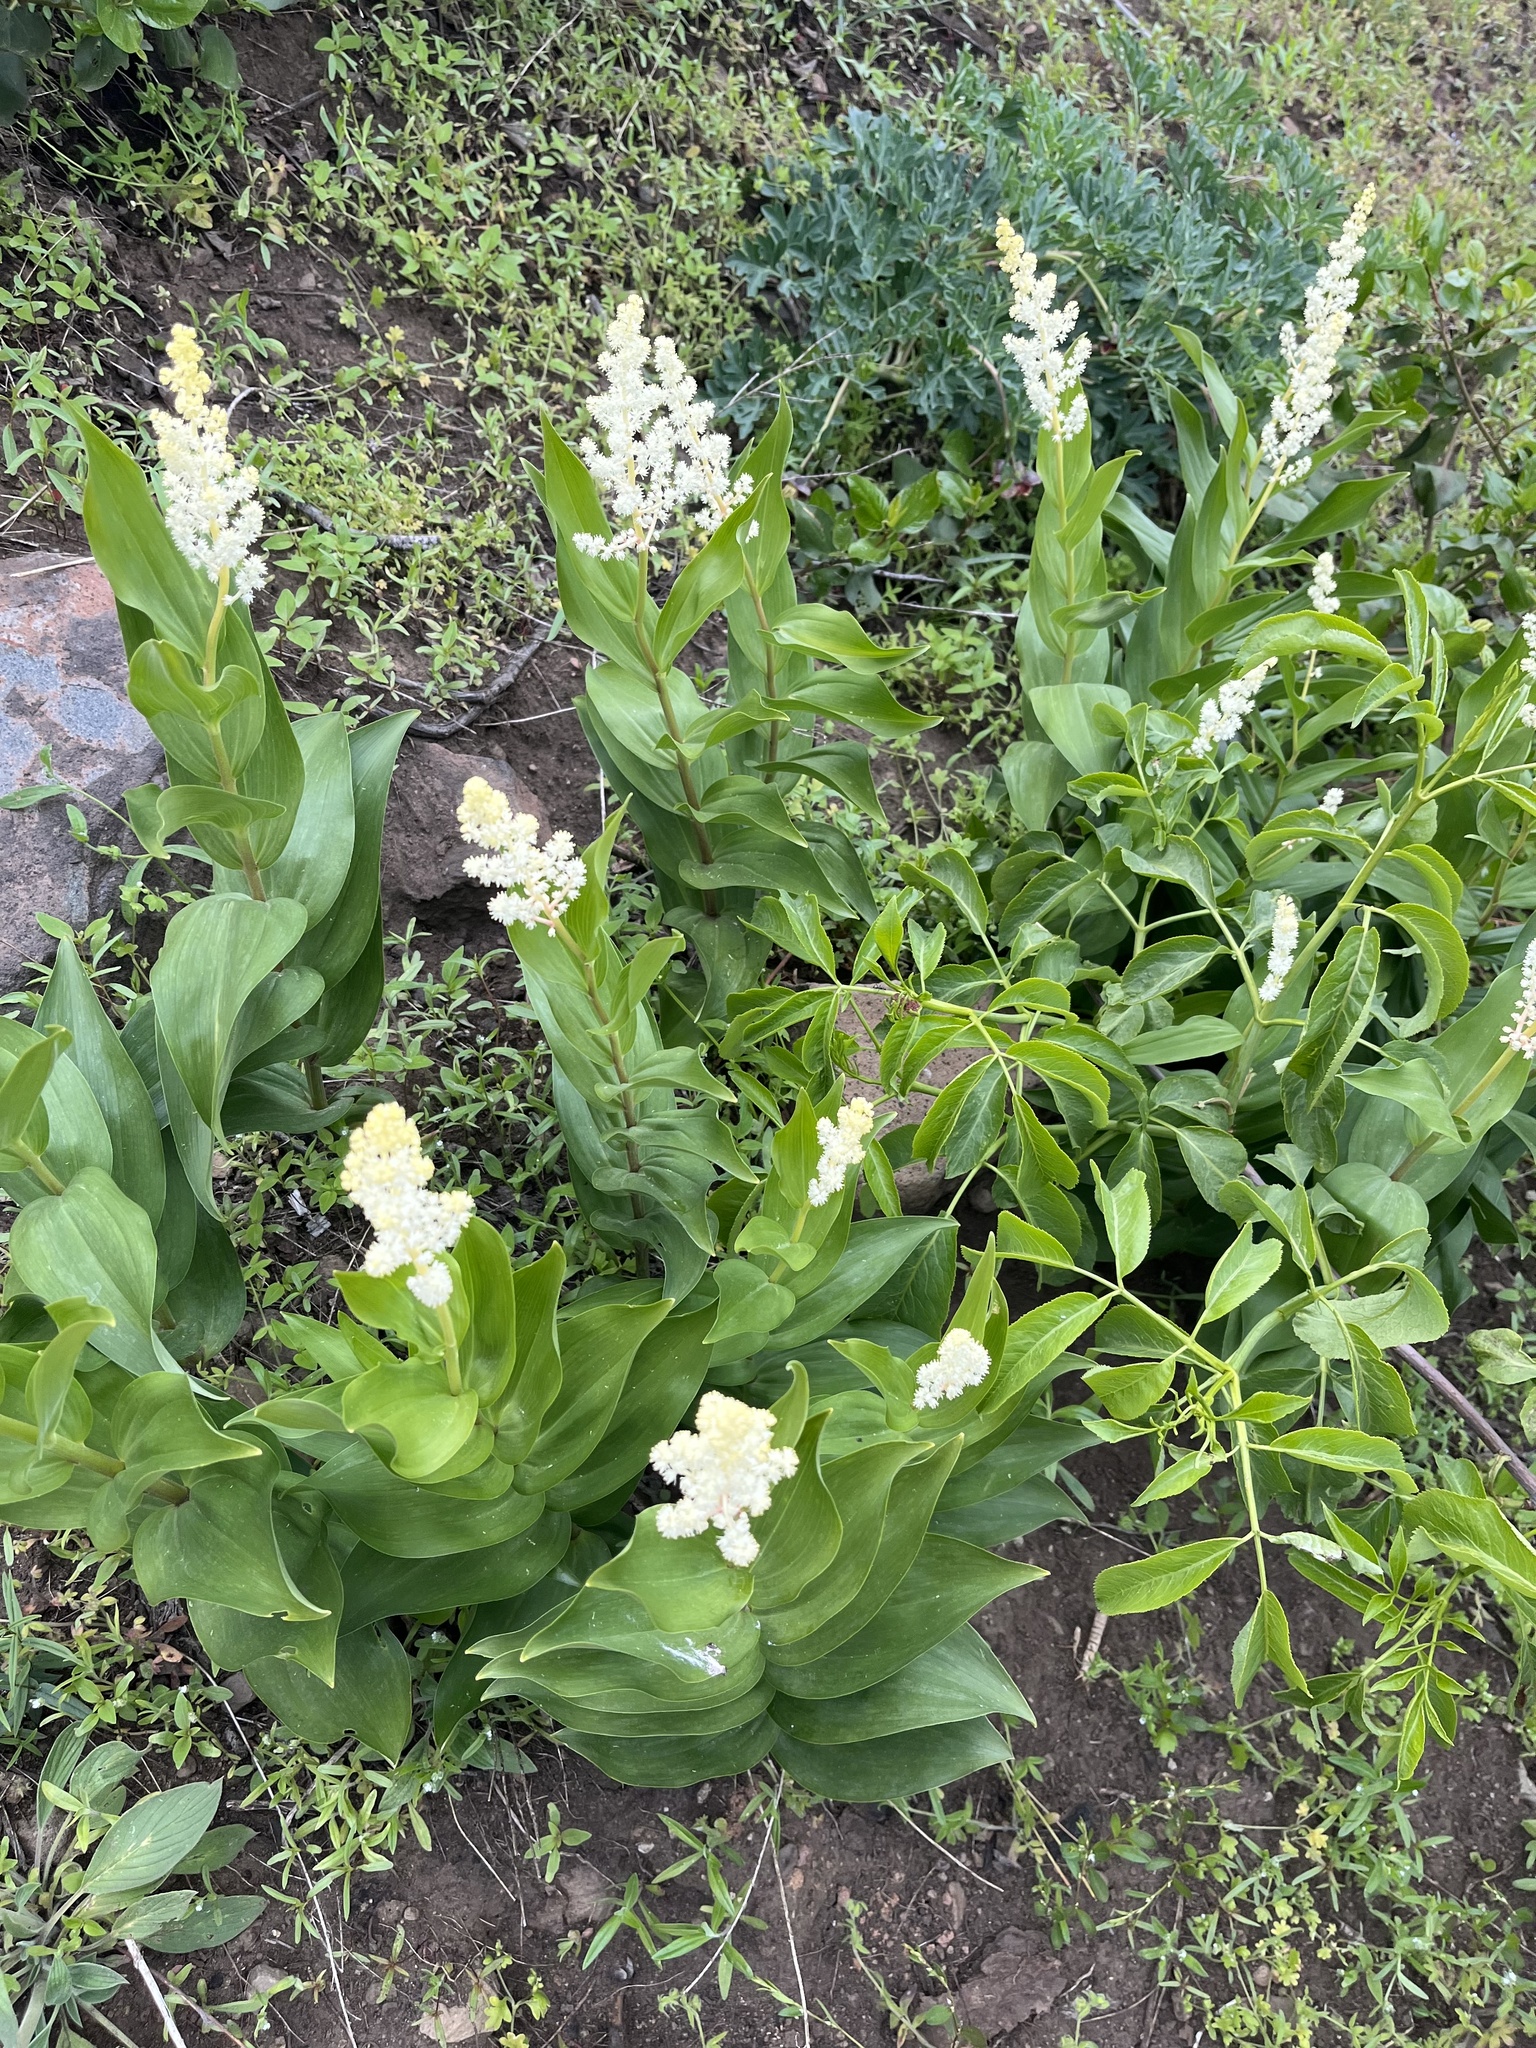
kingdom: Plantae
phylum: Tracheophyta
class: Liliopsida
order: Asparagales
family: Asparagaceae
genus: Maianthemum
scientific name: Maianthemum racemosum
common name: False spikenard
